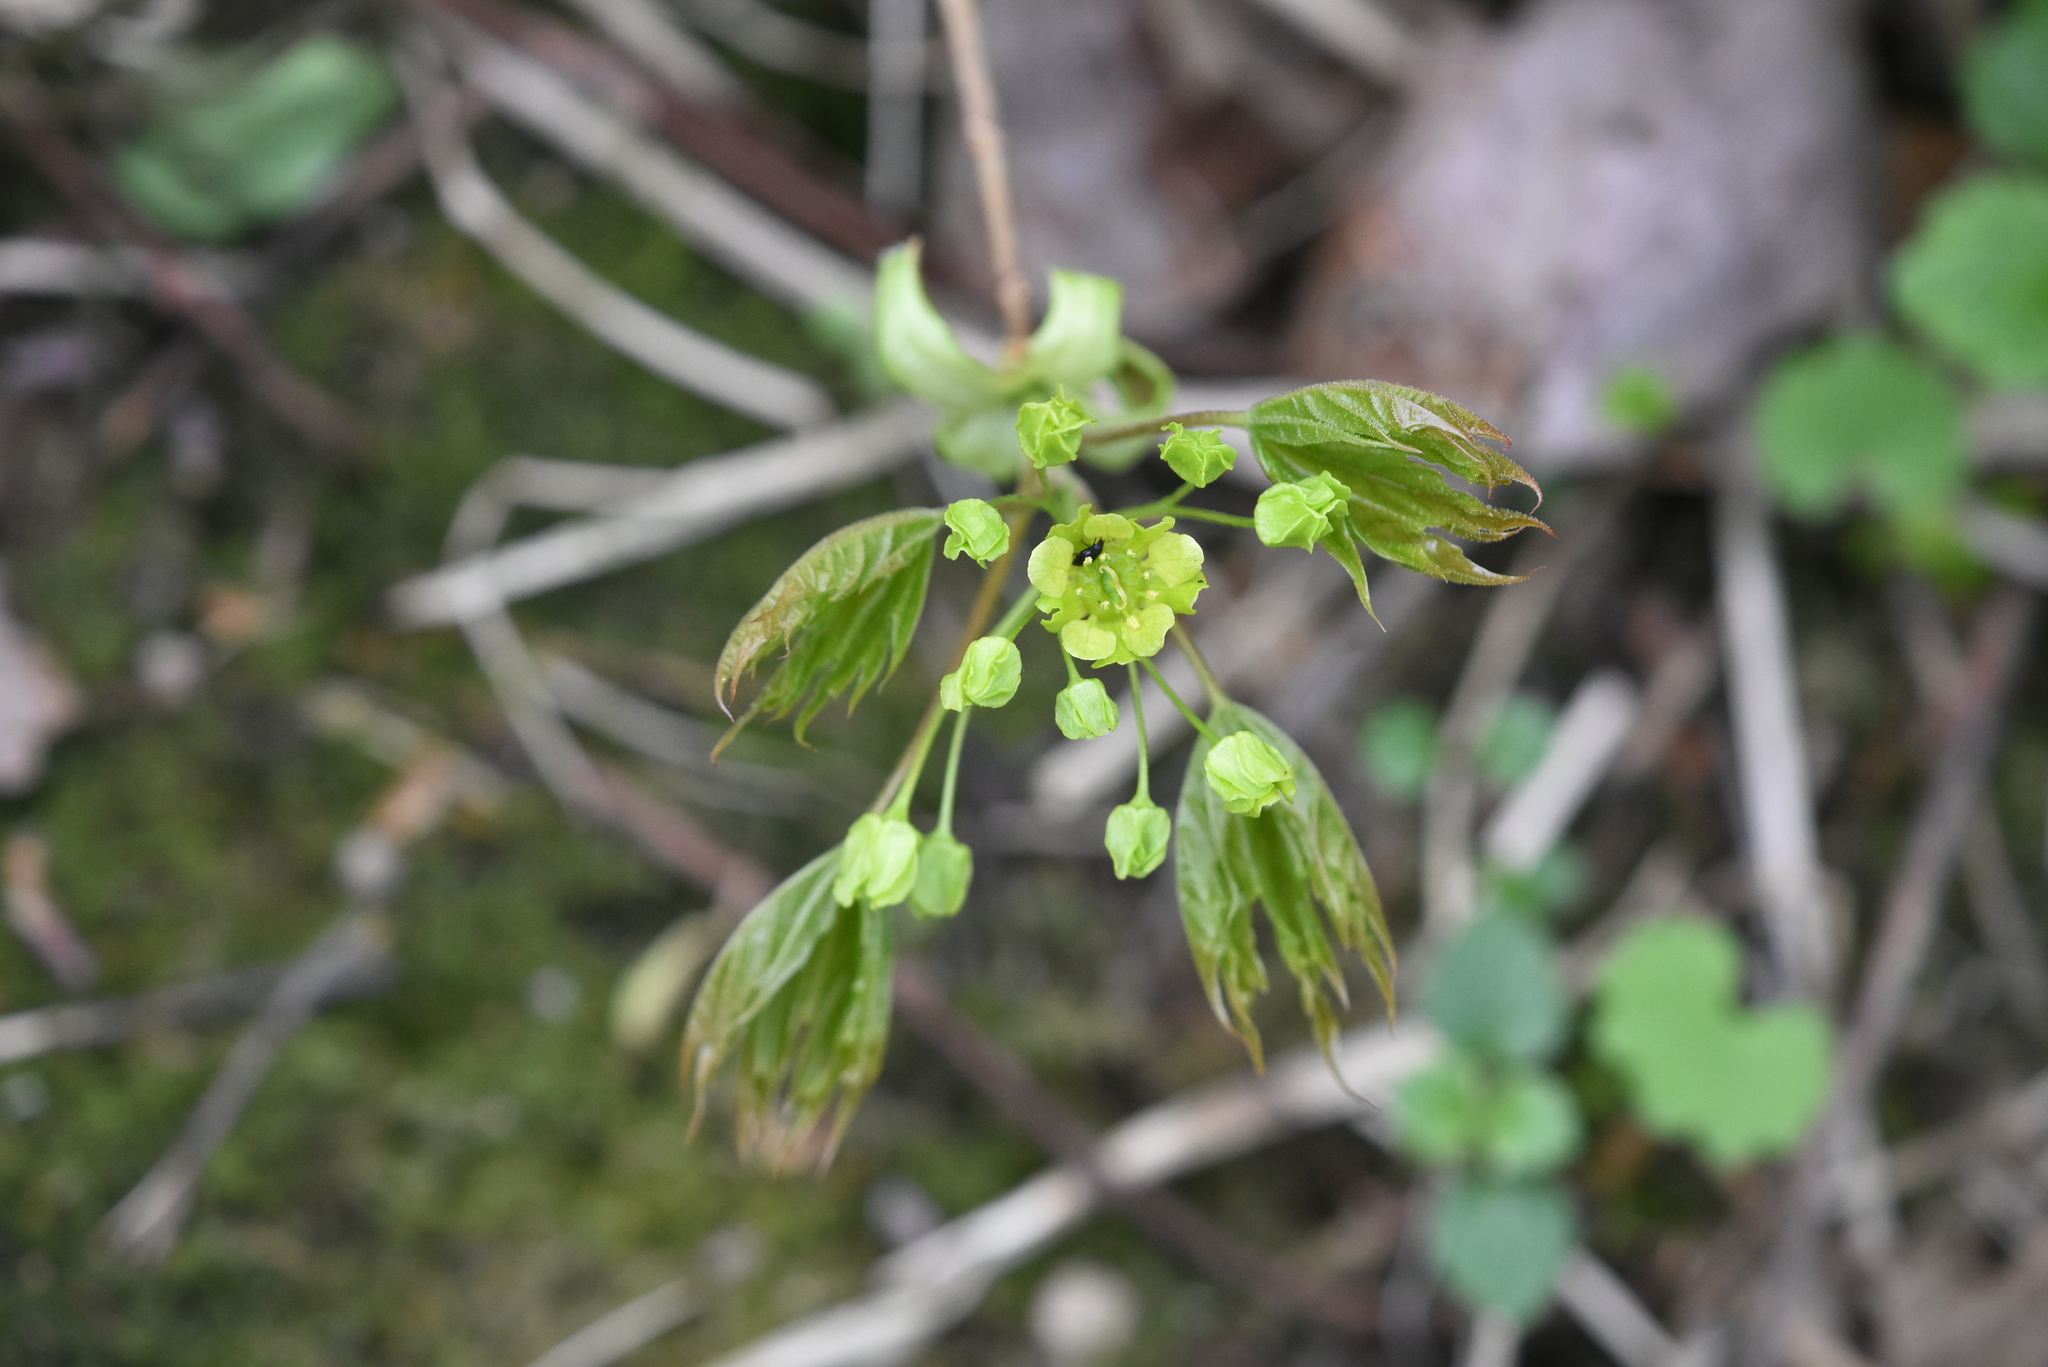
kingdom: Plantae
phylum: Tracheophyta
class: Magnoliopsida
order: Sapindales
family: Sapindaceae
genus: Acer
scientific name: Acer platanoides
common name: Norway maple
